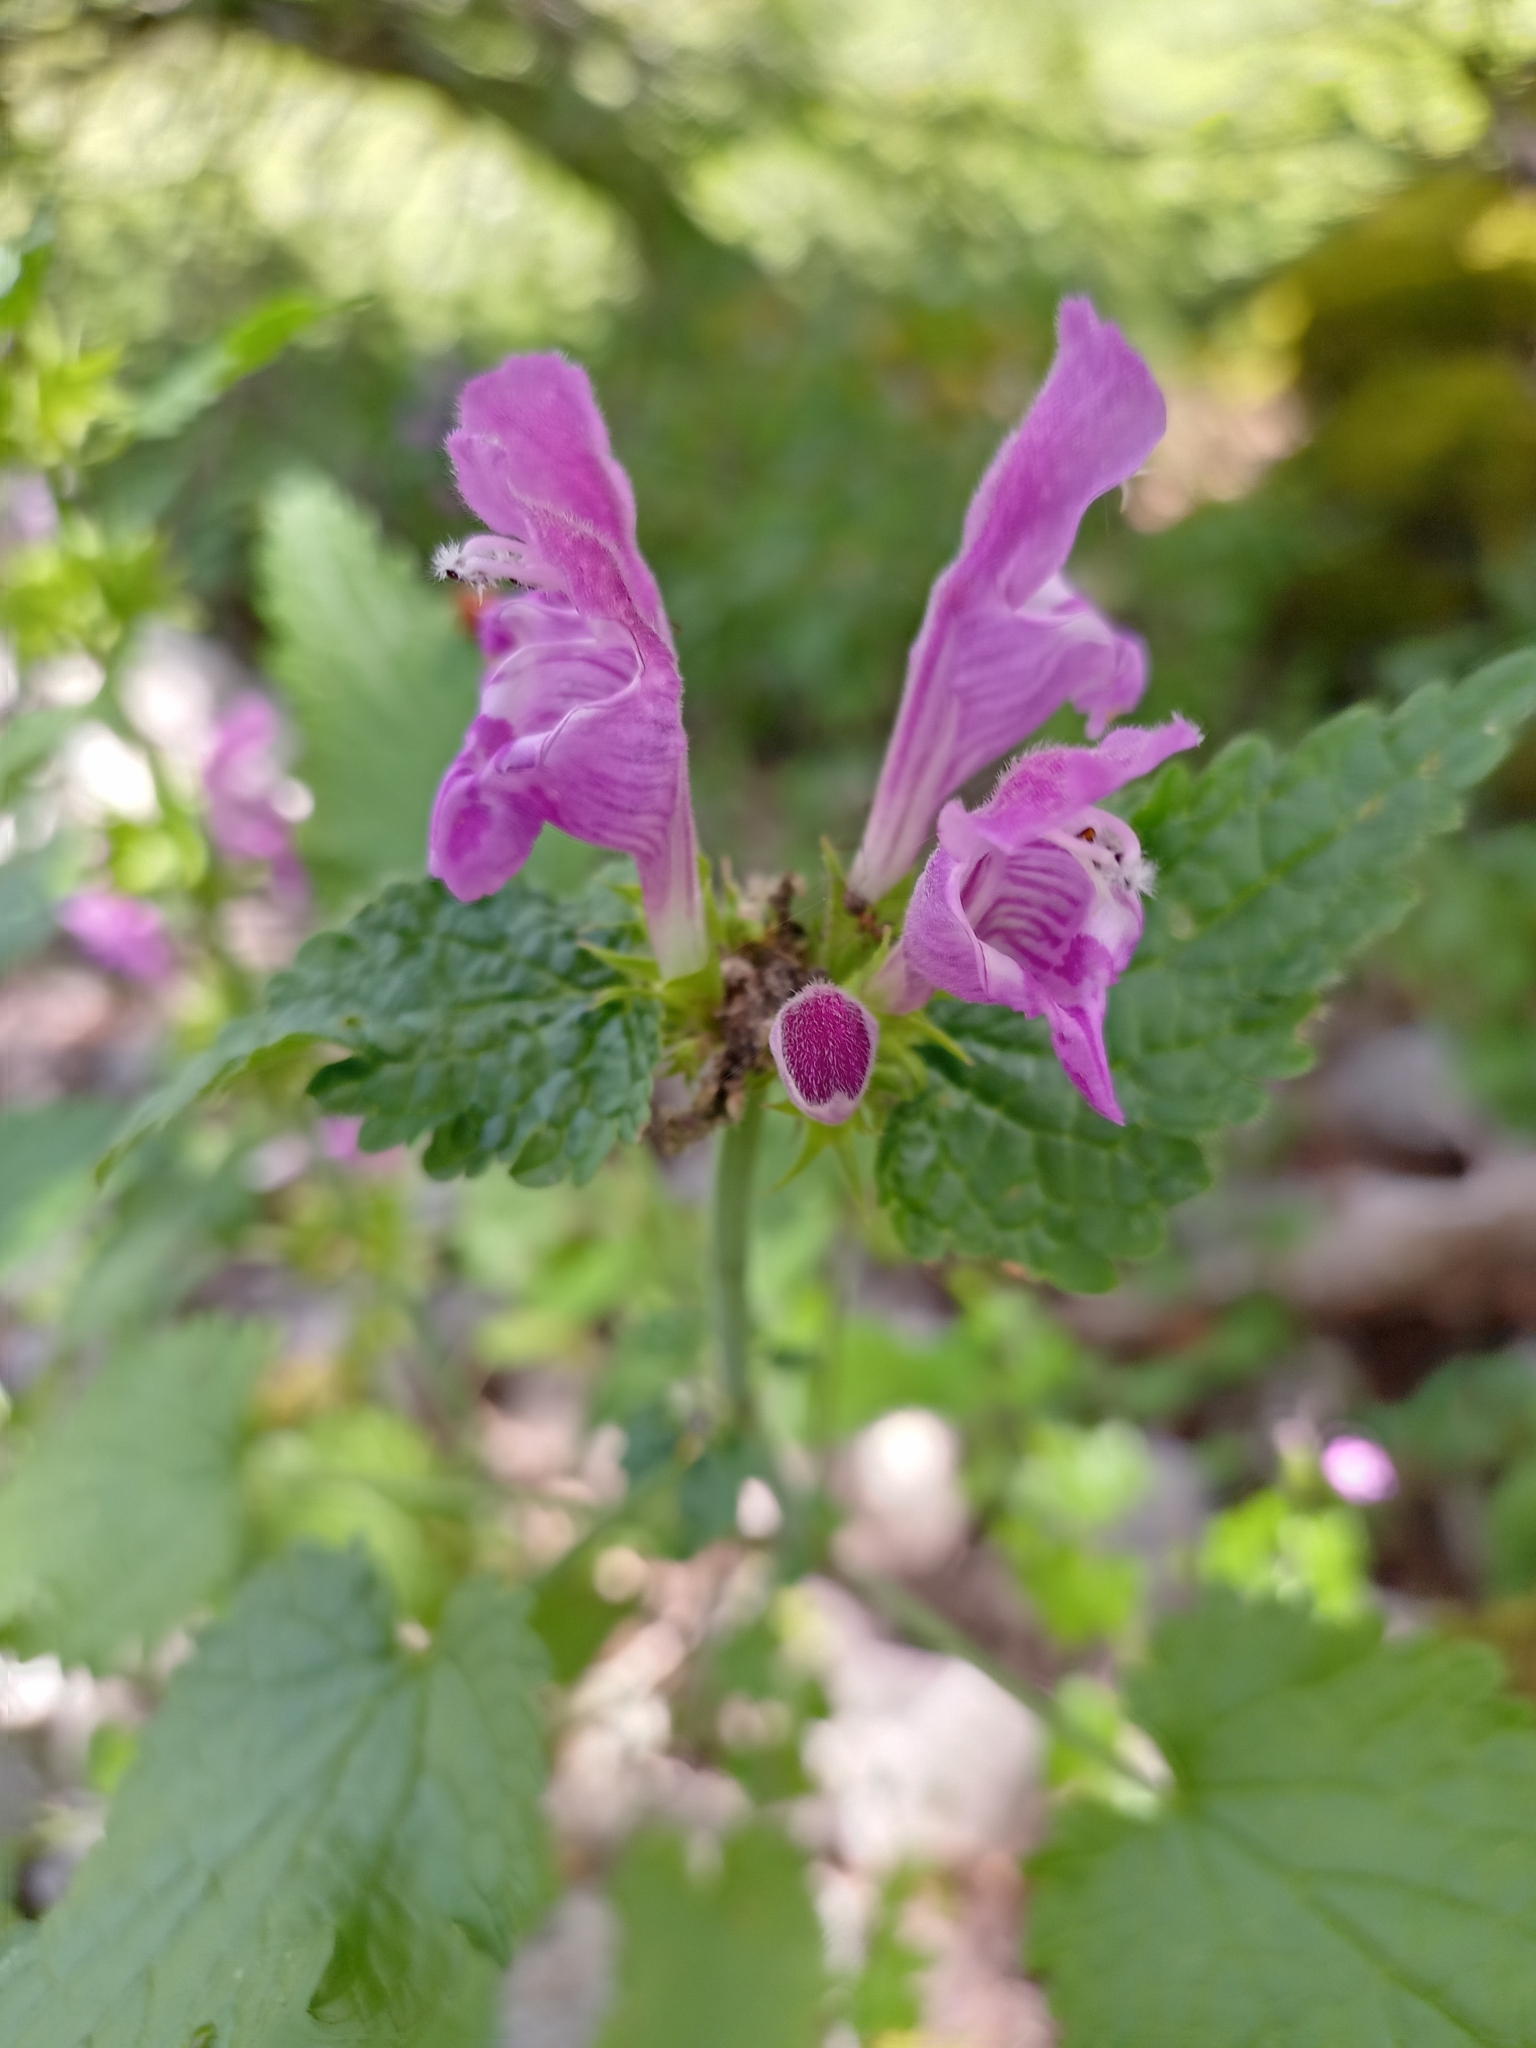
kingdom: Plantae
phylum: Tracheophyta
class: Magnoliopsida
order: Lamiales
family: Lamiaceae
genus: Lamium
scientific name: Lamium garganicum
